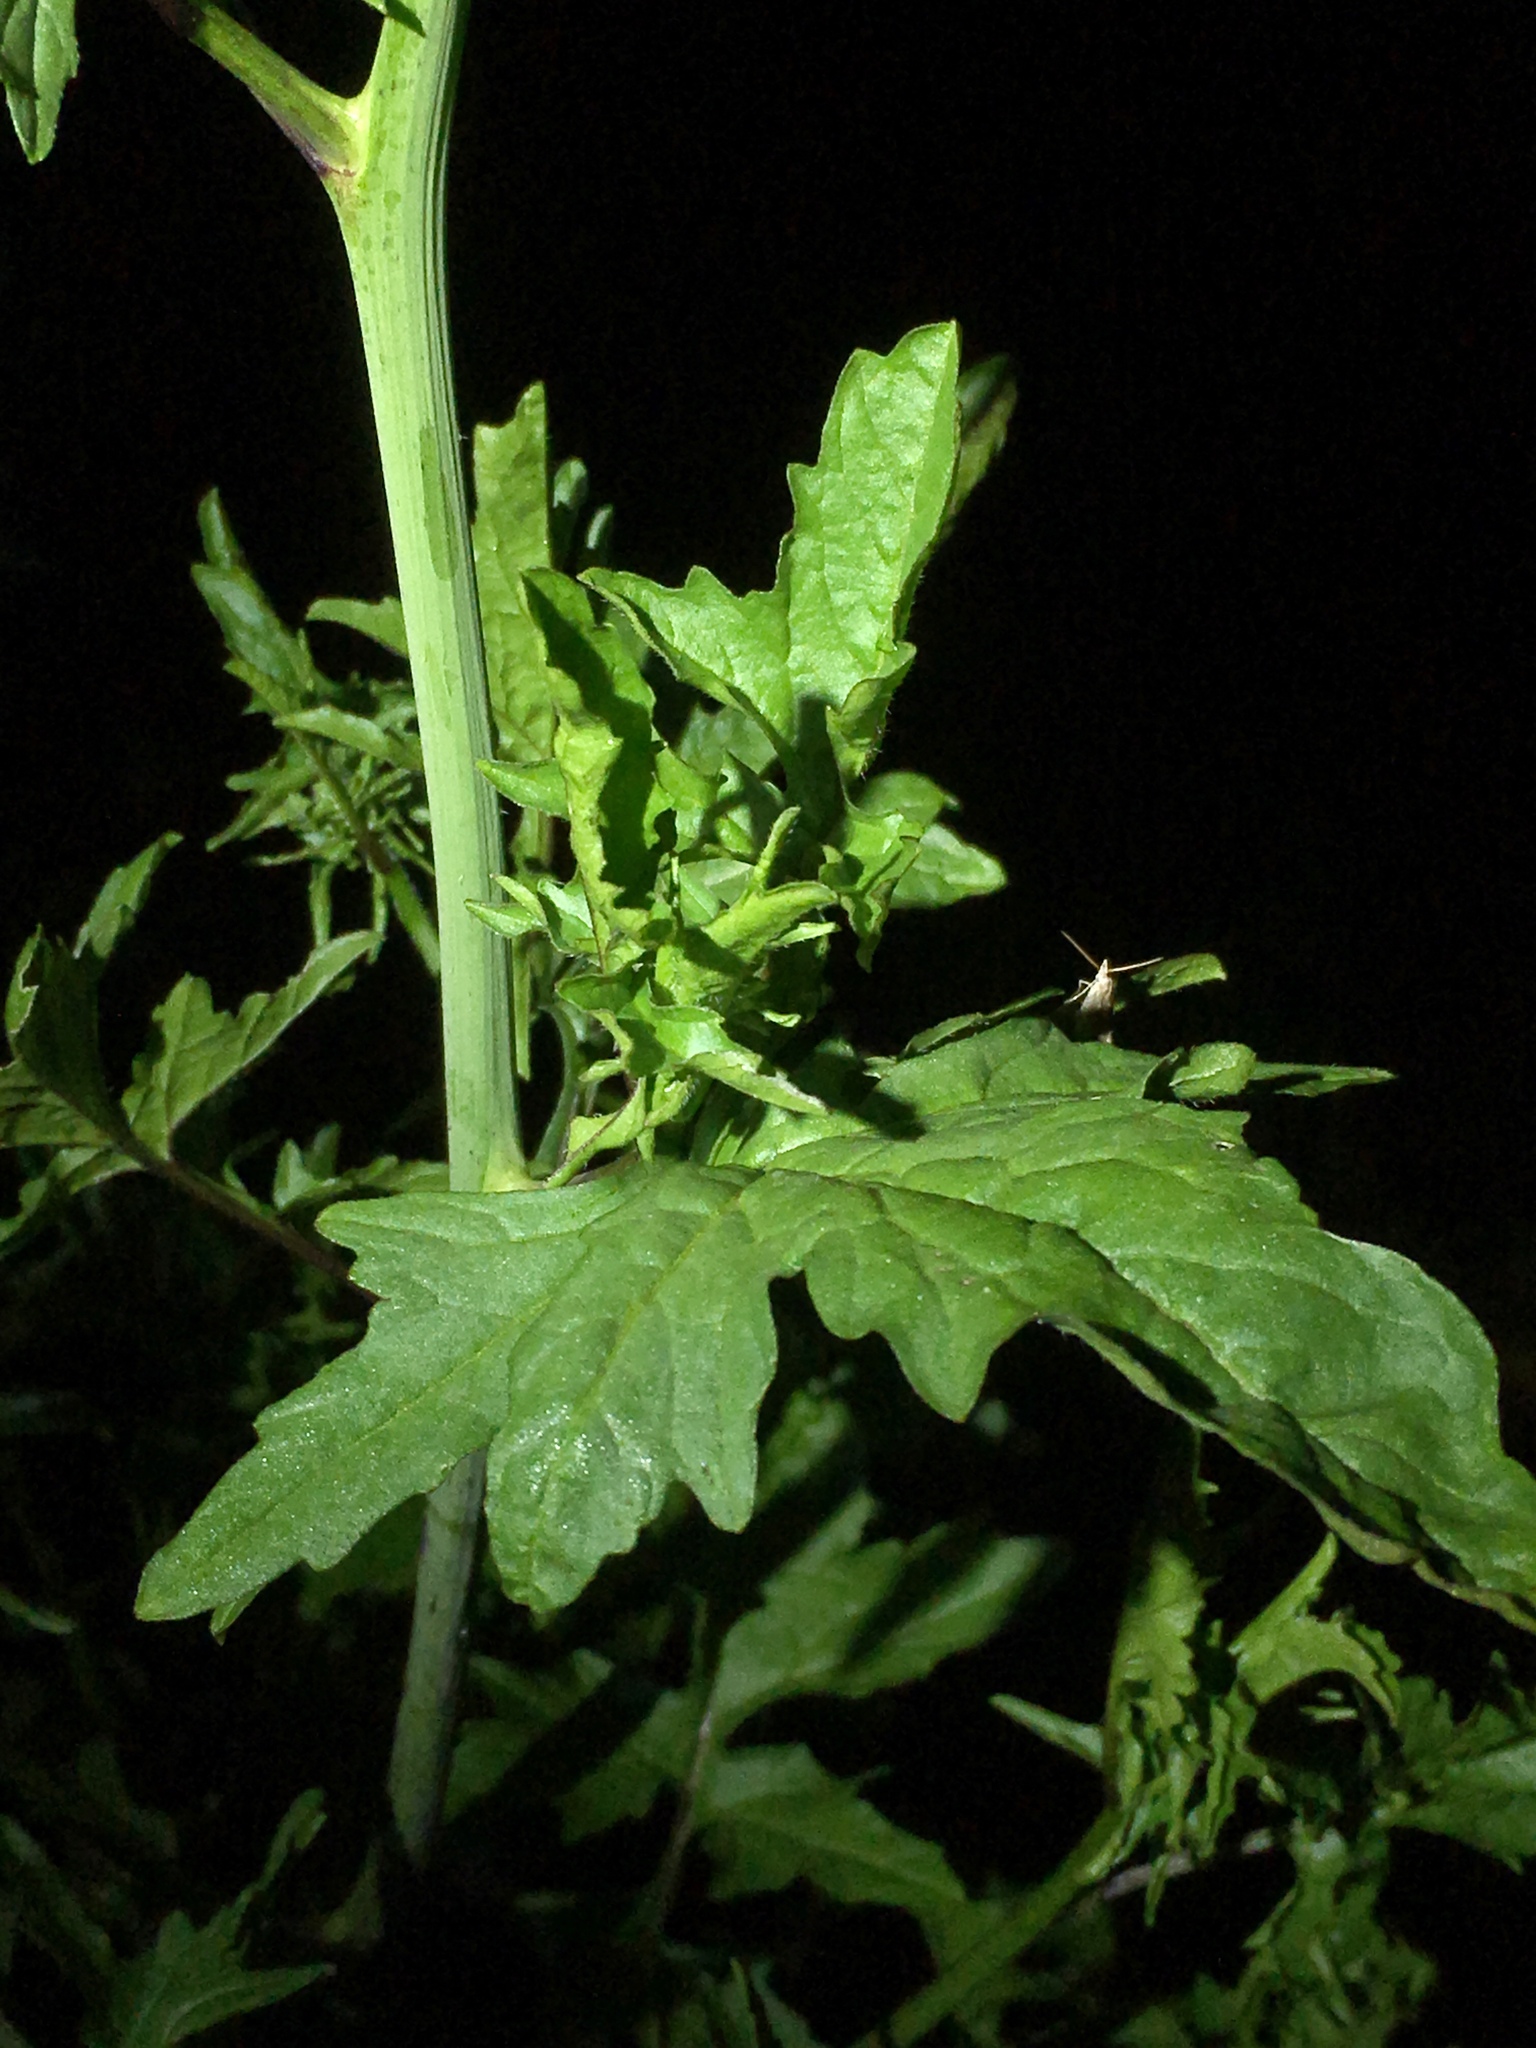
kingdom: Plantae
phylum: Tracheophyta
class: Magnoliopsida
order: Brassicales
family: Brassicaceae
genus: Sisymbrium
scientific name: Sisymbrium officinale
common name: Hedge mustard
